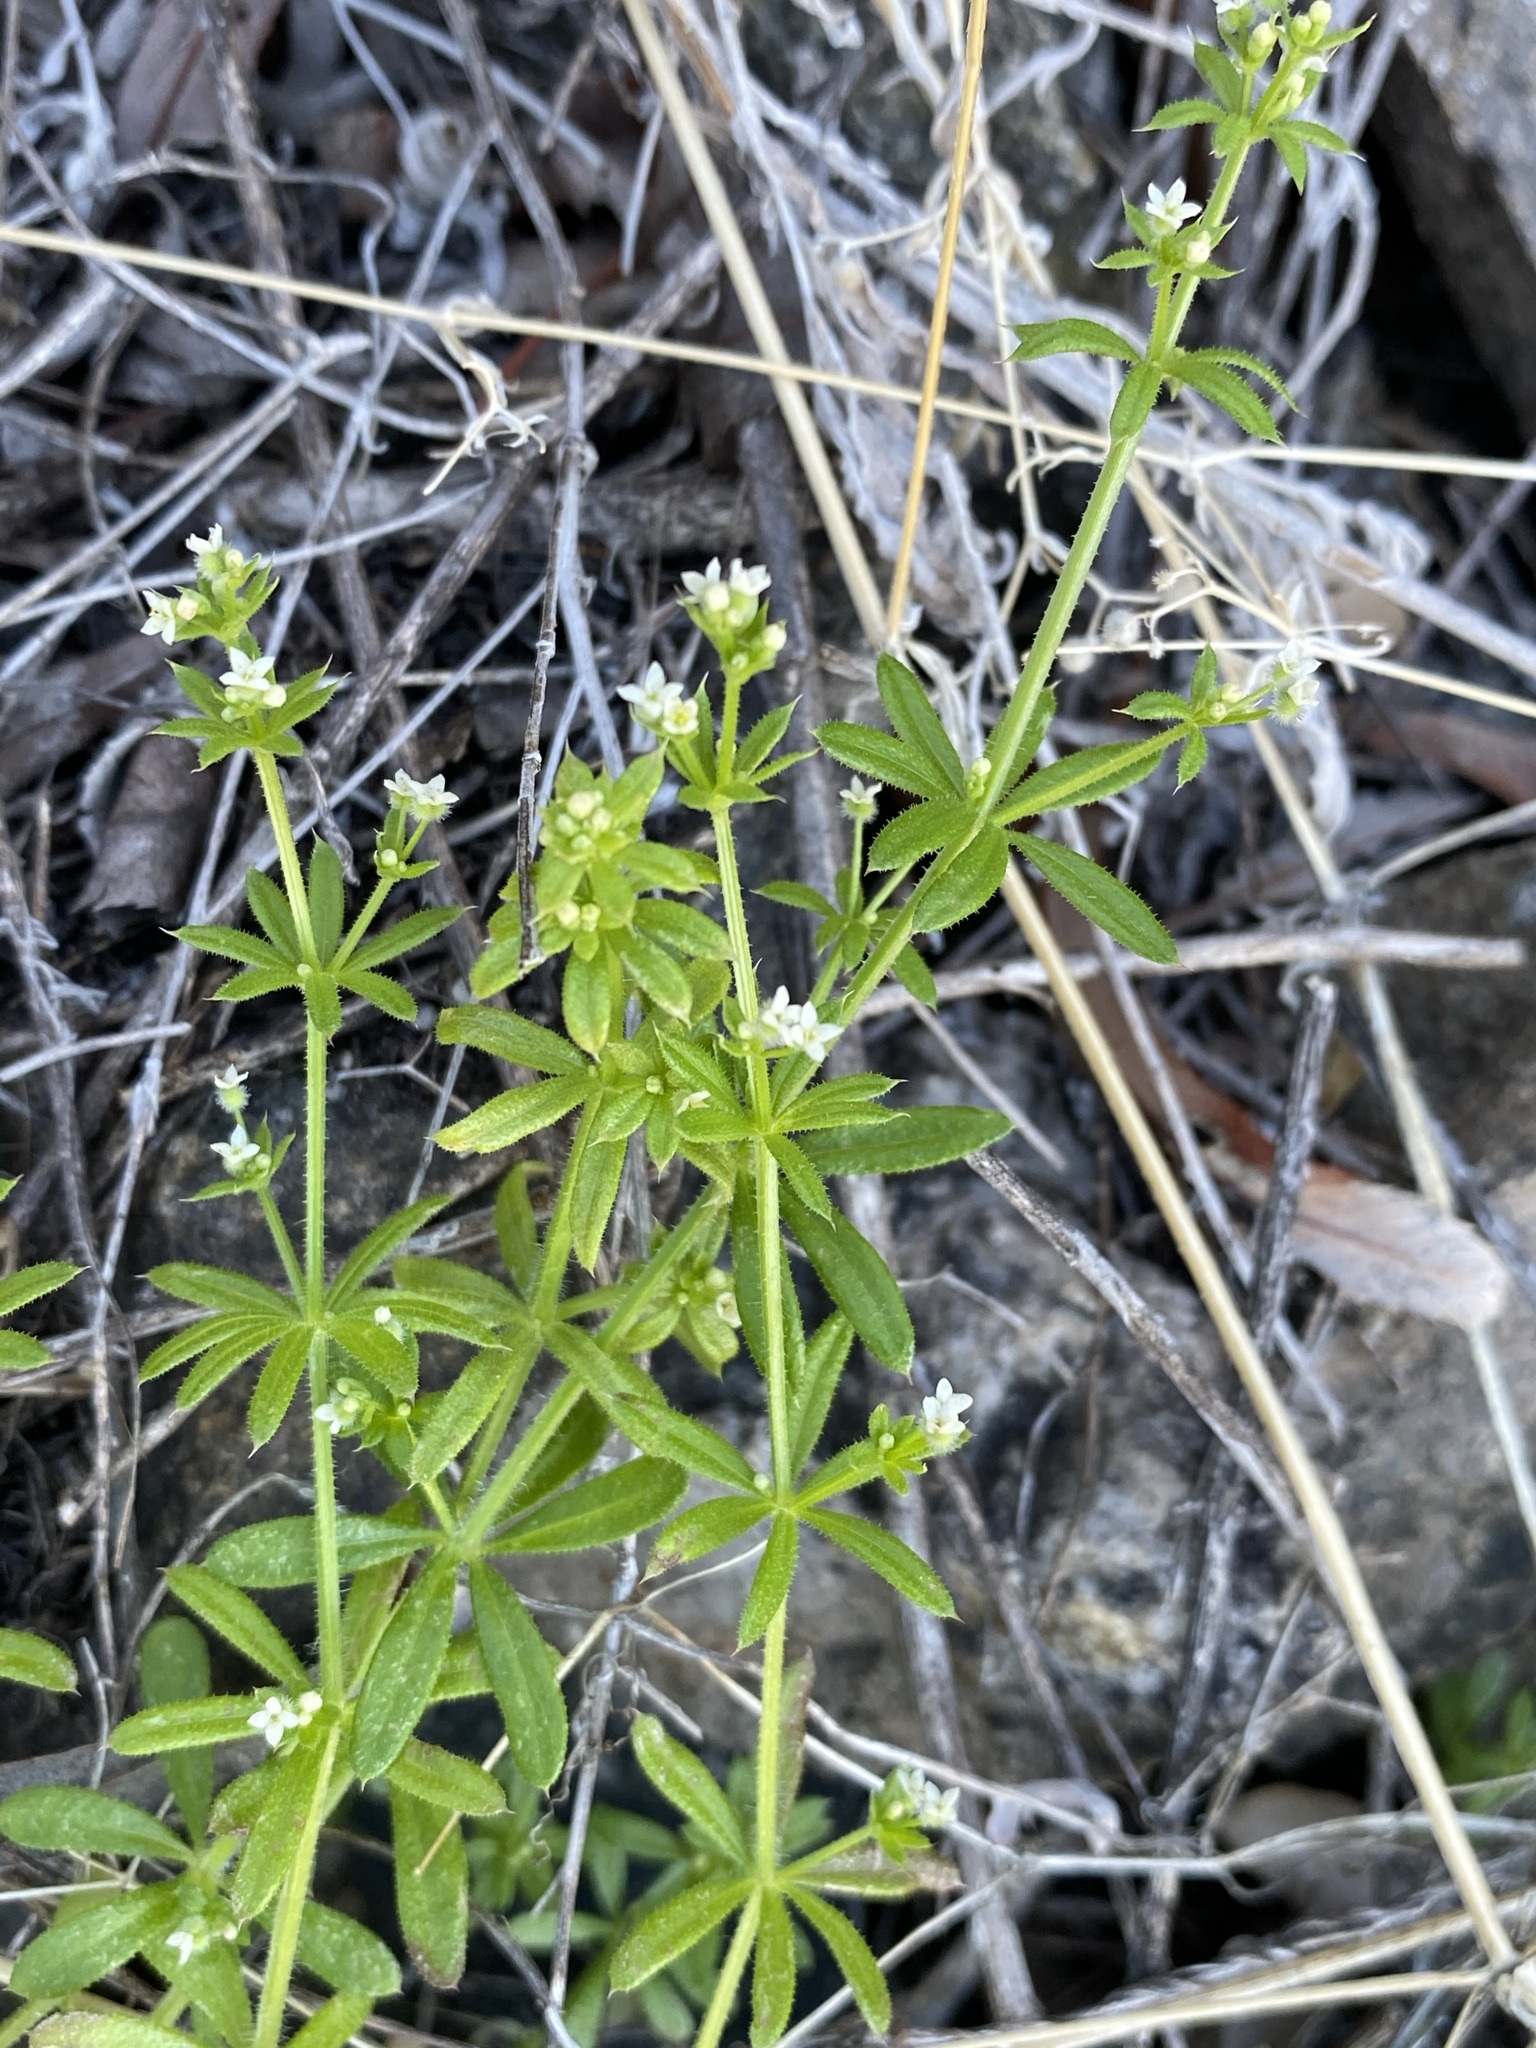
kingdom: Plantae
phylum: Tracheophyta
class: Magnoliopsida
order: Gentianales
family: Rubiaceae
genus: Galium
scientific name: Galium aparine
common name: Cleavers
